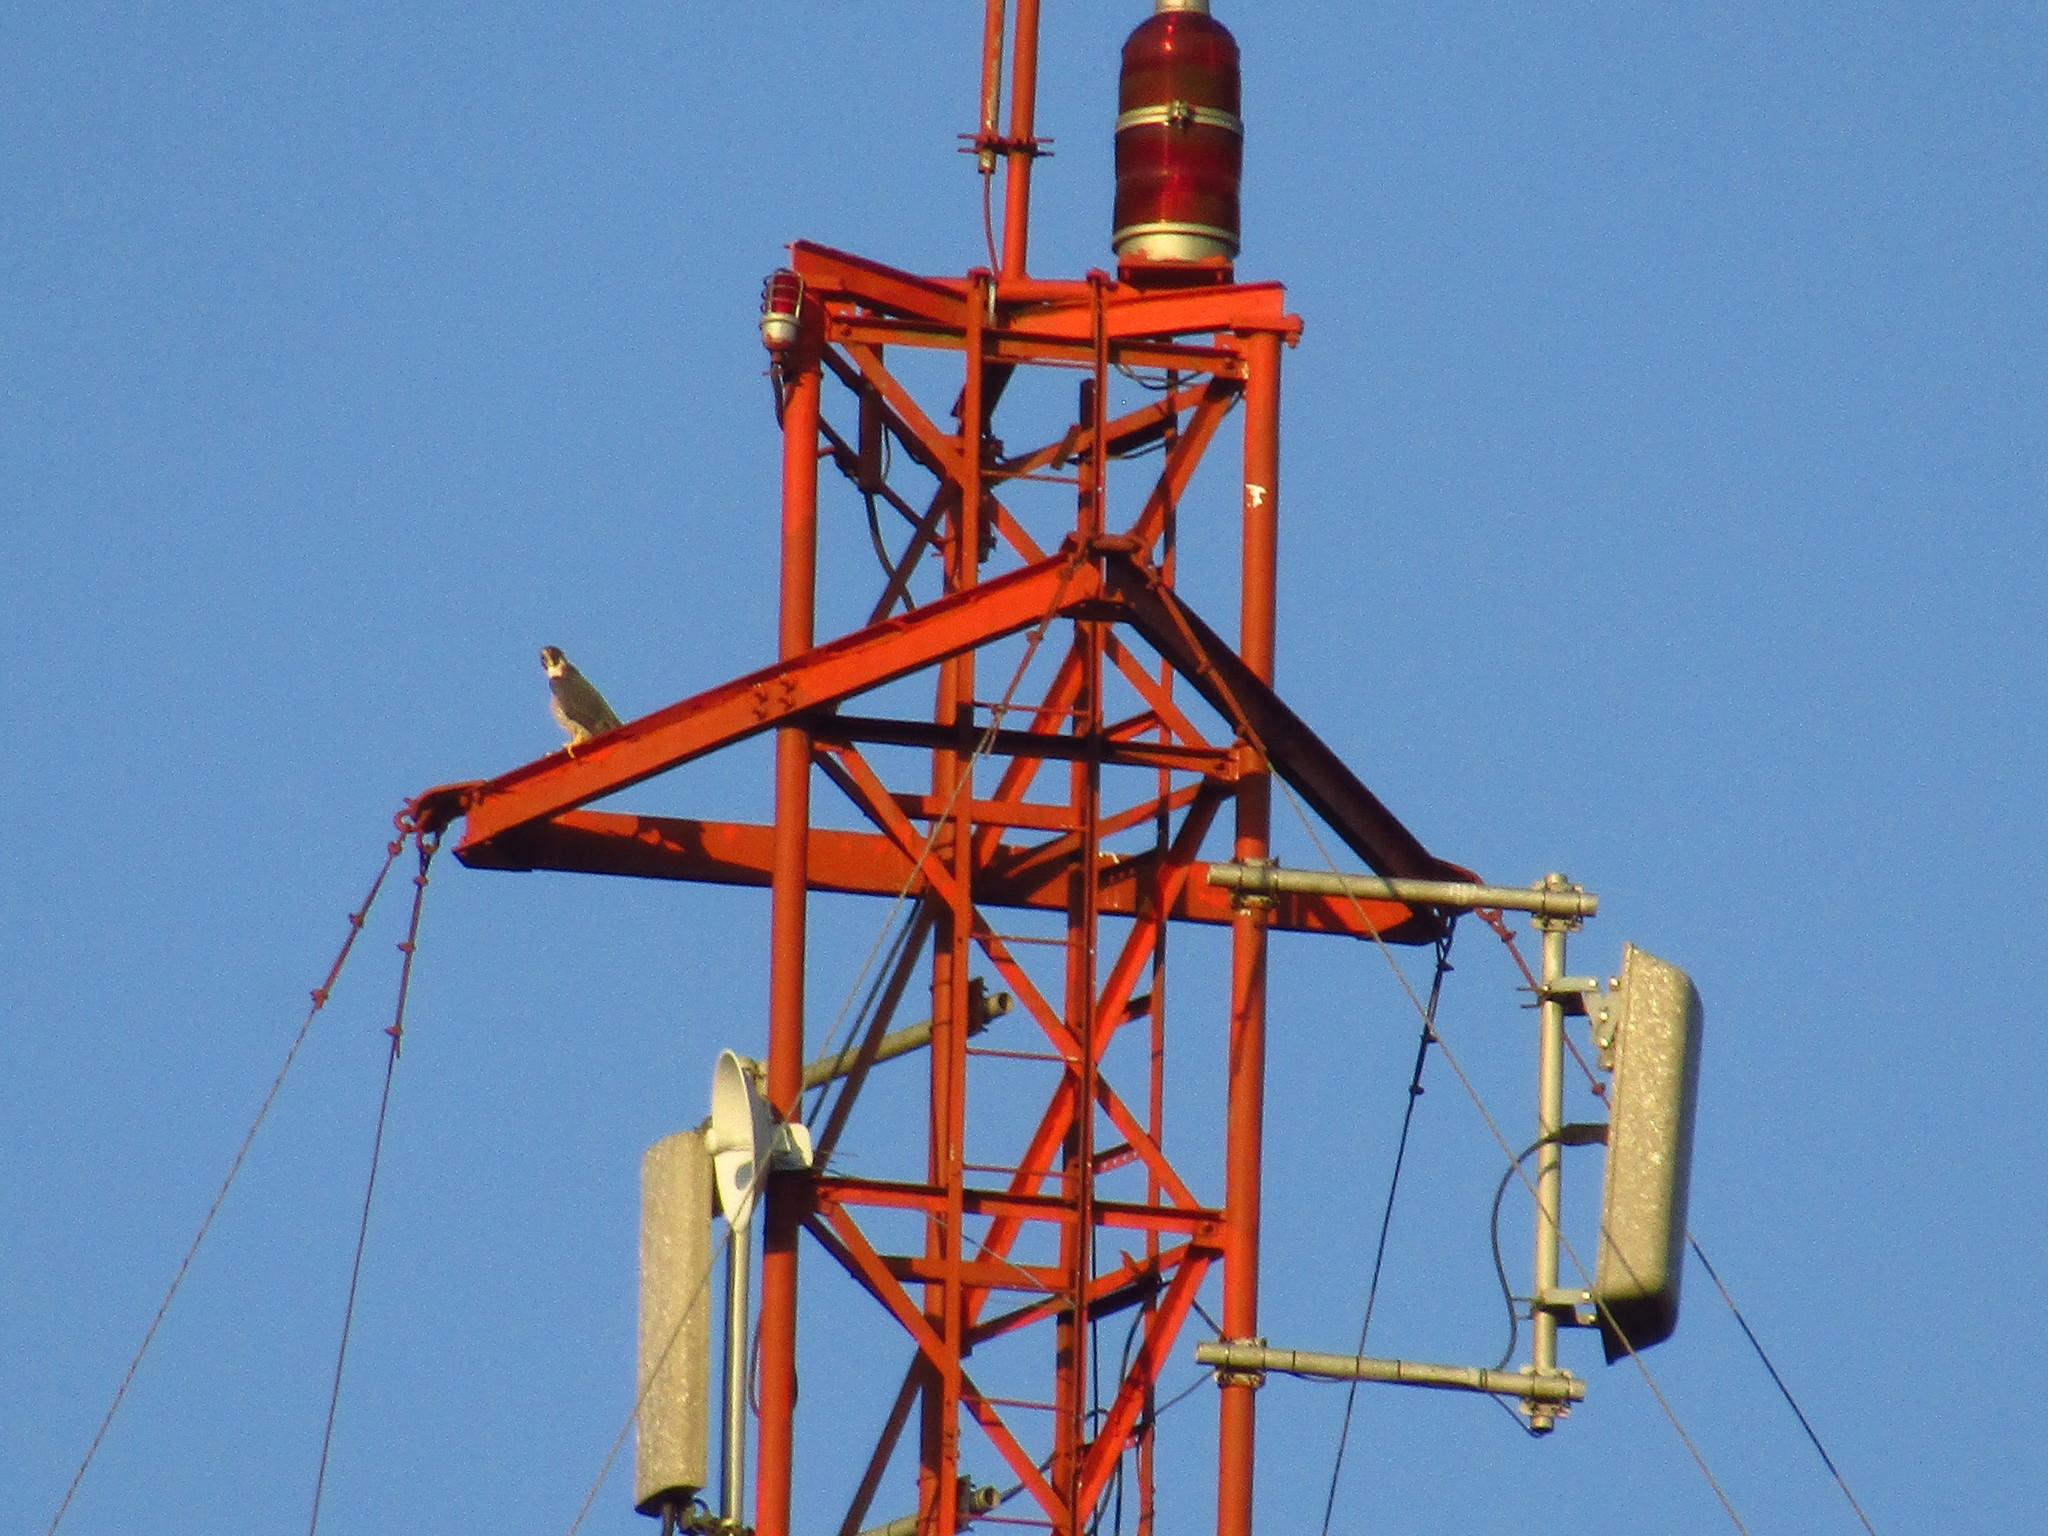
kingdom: Animalia
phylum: Chordata
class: Aves
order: Falconiformes
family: Falconidae
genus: Falco
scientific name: Falco peregrinus
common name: Peregrine falcon
